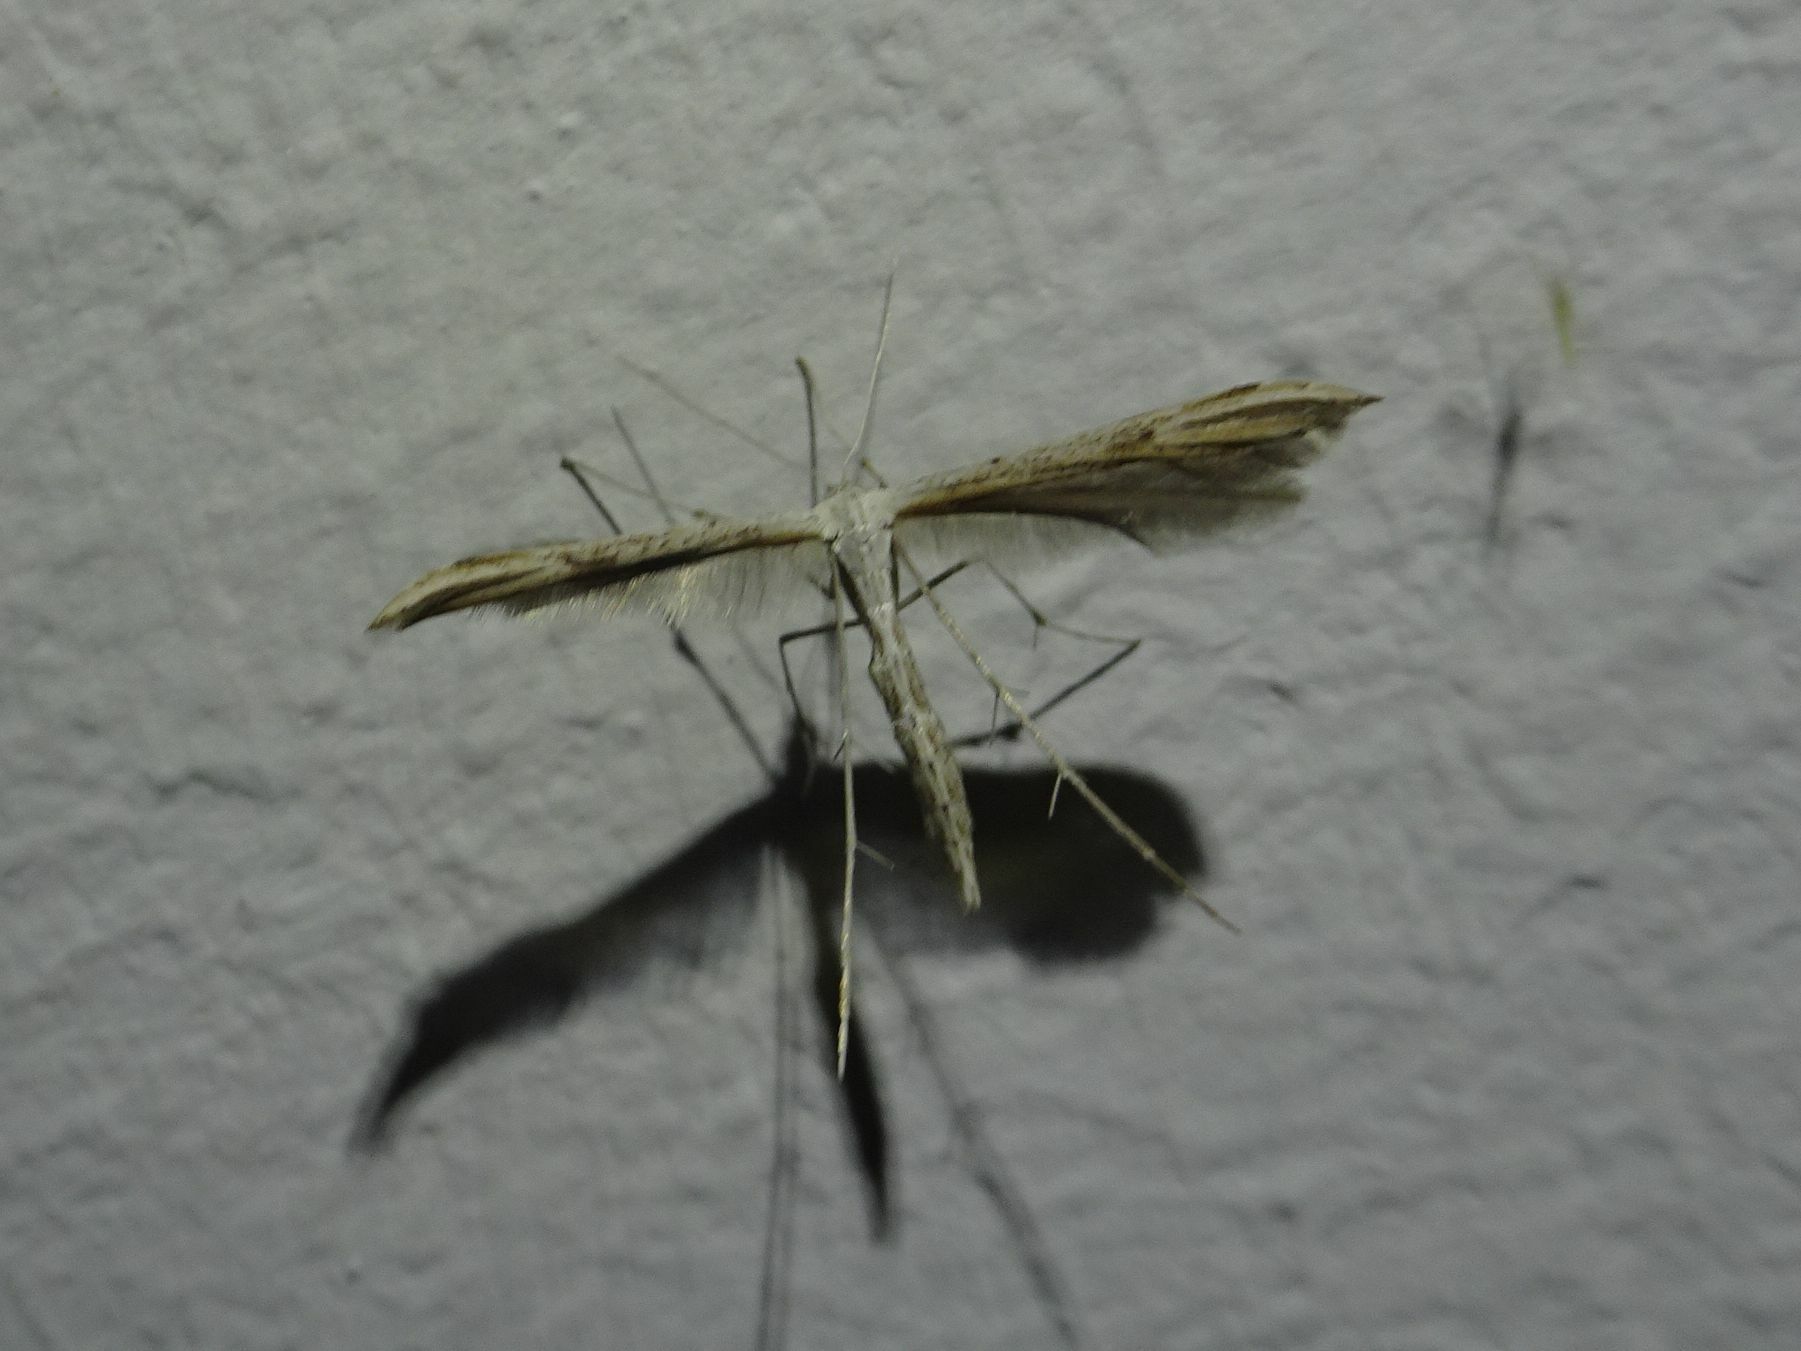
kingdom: Animalia
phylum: Arthropoda
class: Insecta
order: Lepidoptera
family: Pterophoridae
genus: Emmelina
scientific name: Emmelina monodactyla
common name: Common plume
